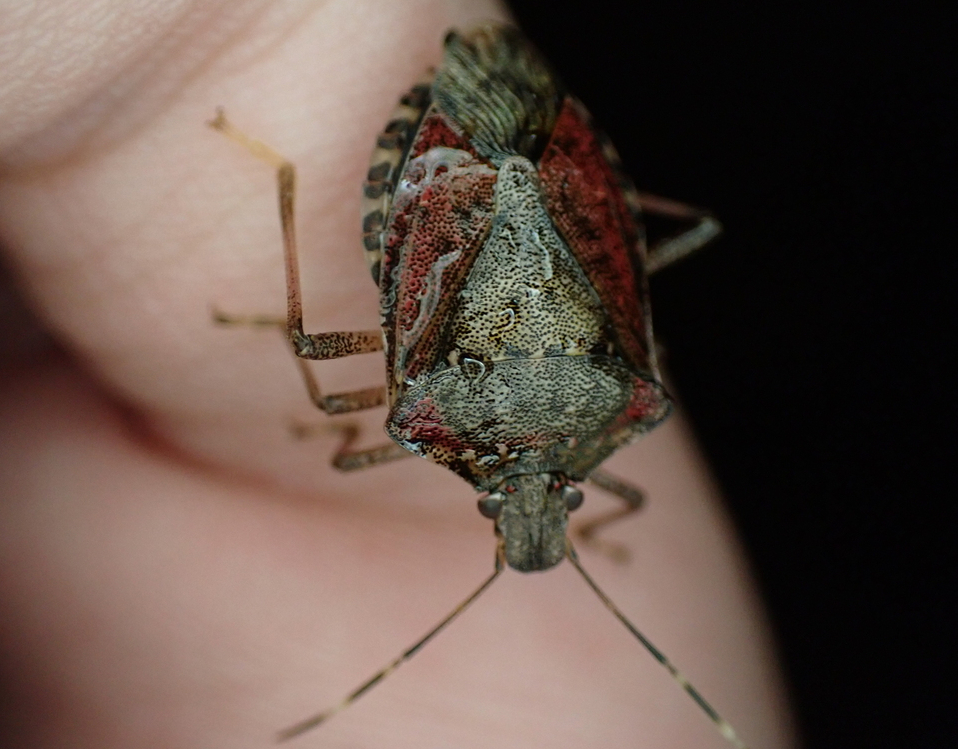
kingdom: Animalia
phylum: Arthropoda
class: Insecta
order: Hemiptera
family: Pentatomidae
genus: Halyomorpha
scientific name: Halyomorpha halys
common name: Brown marmorated stink bug
